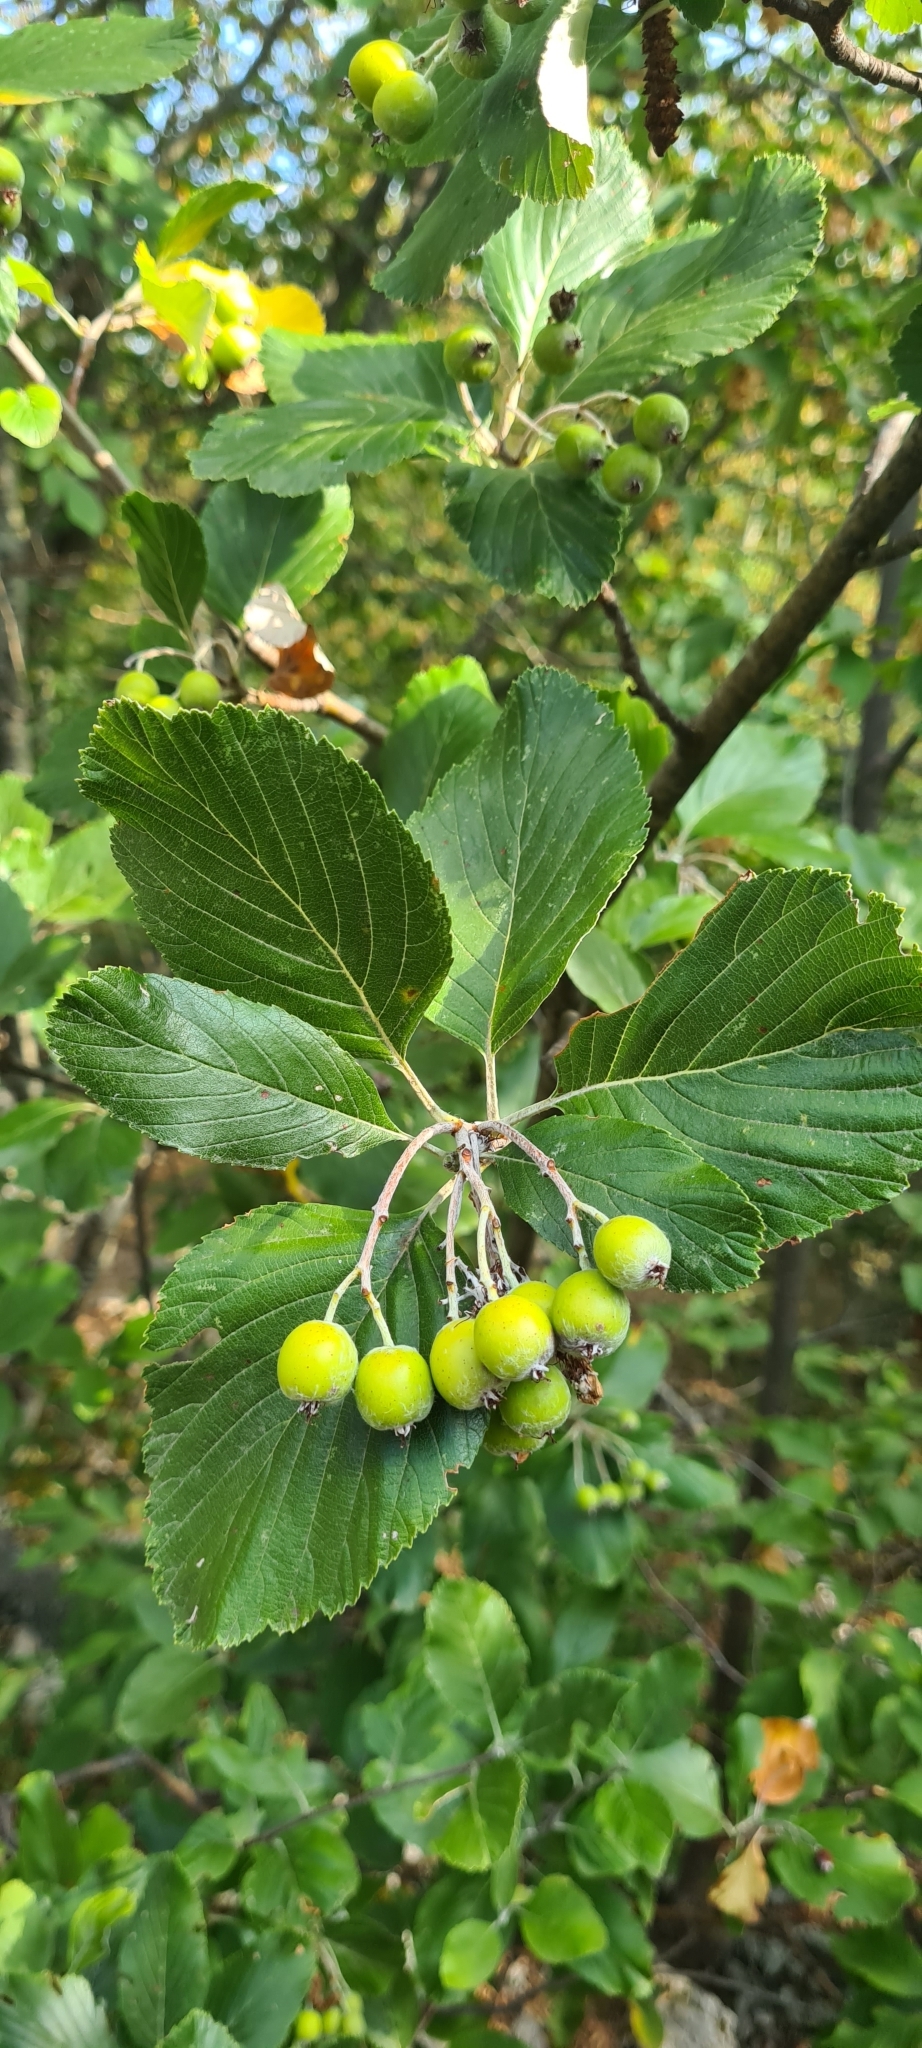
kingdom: Plantae
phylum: Tracheophyta
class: Magnoliopsida
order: Rosales
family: Rosaceae
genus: Aria
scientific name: Aria edulis
